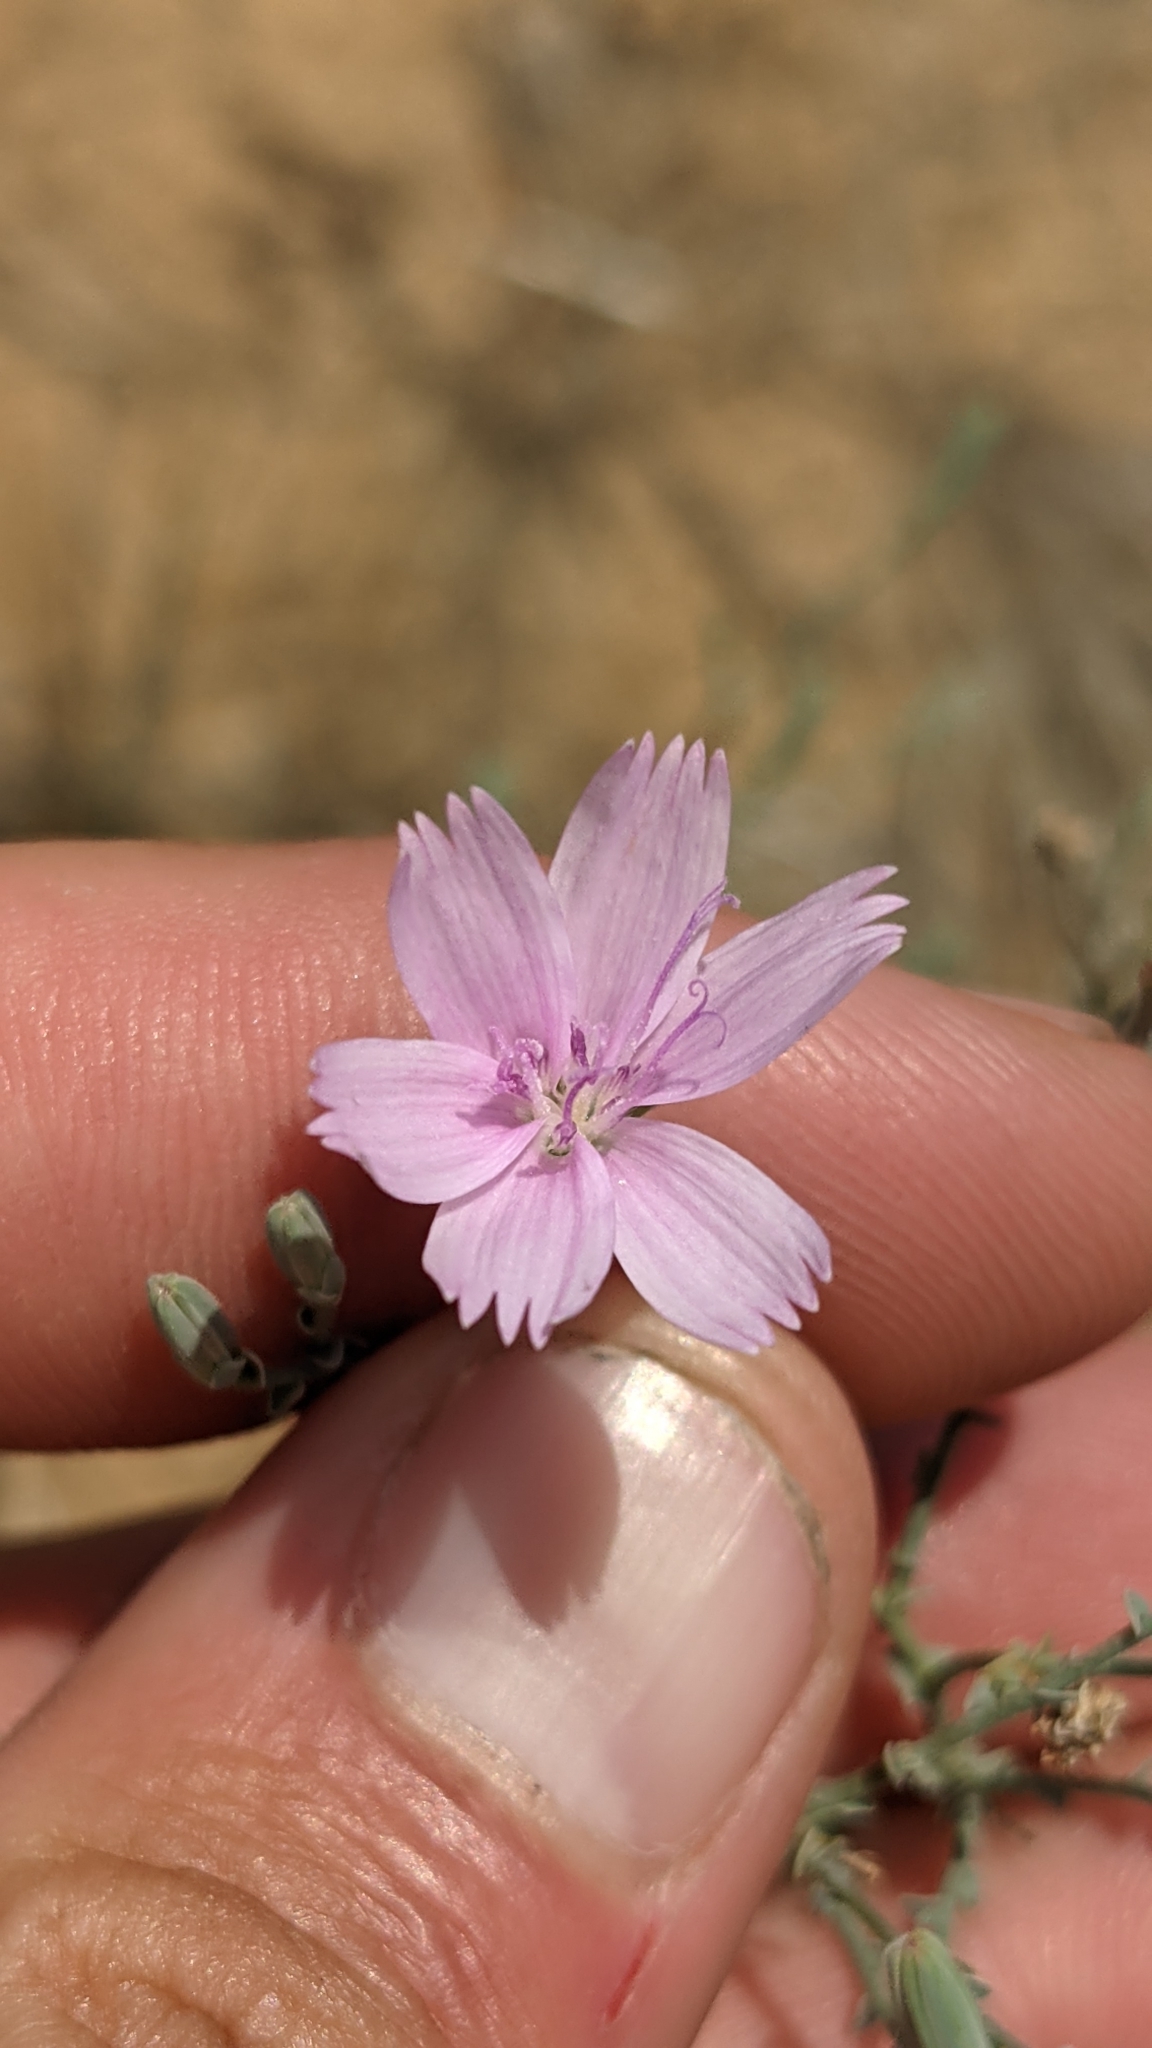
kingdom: Plantae
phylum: Tracheophyta
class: Magnoliopsida
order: Asterales
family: Asteraceae
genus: Stephanomeria
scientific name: Stephanomeria exigua
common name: Small wirelettuce
